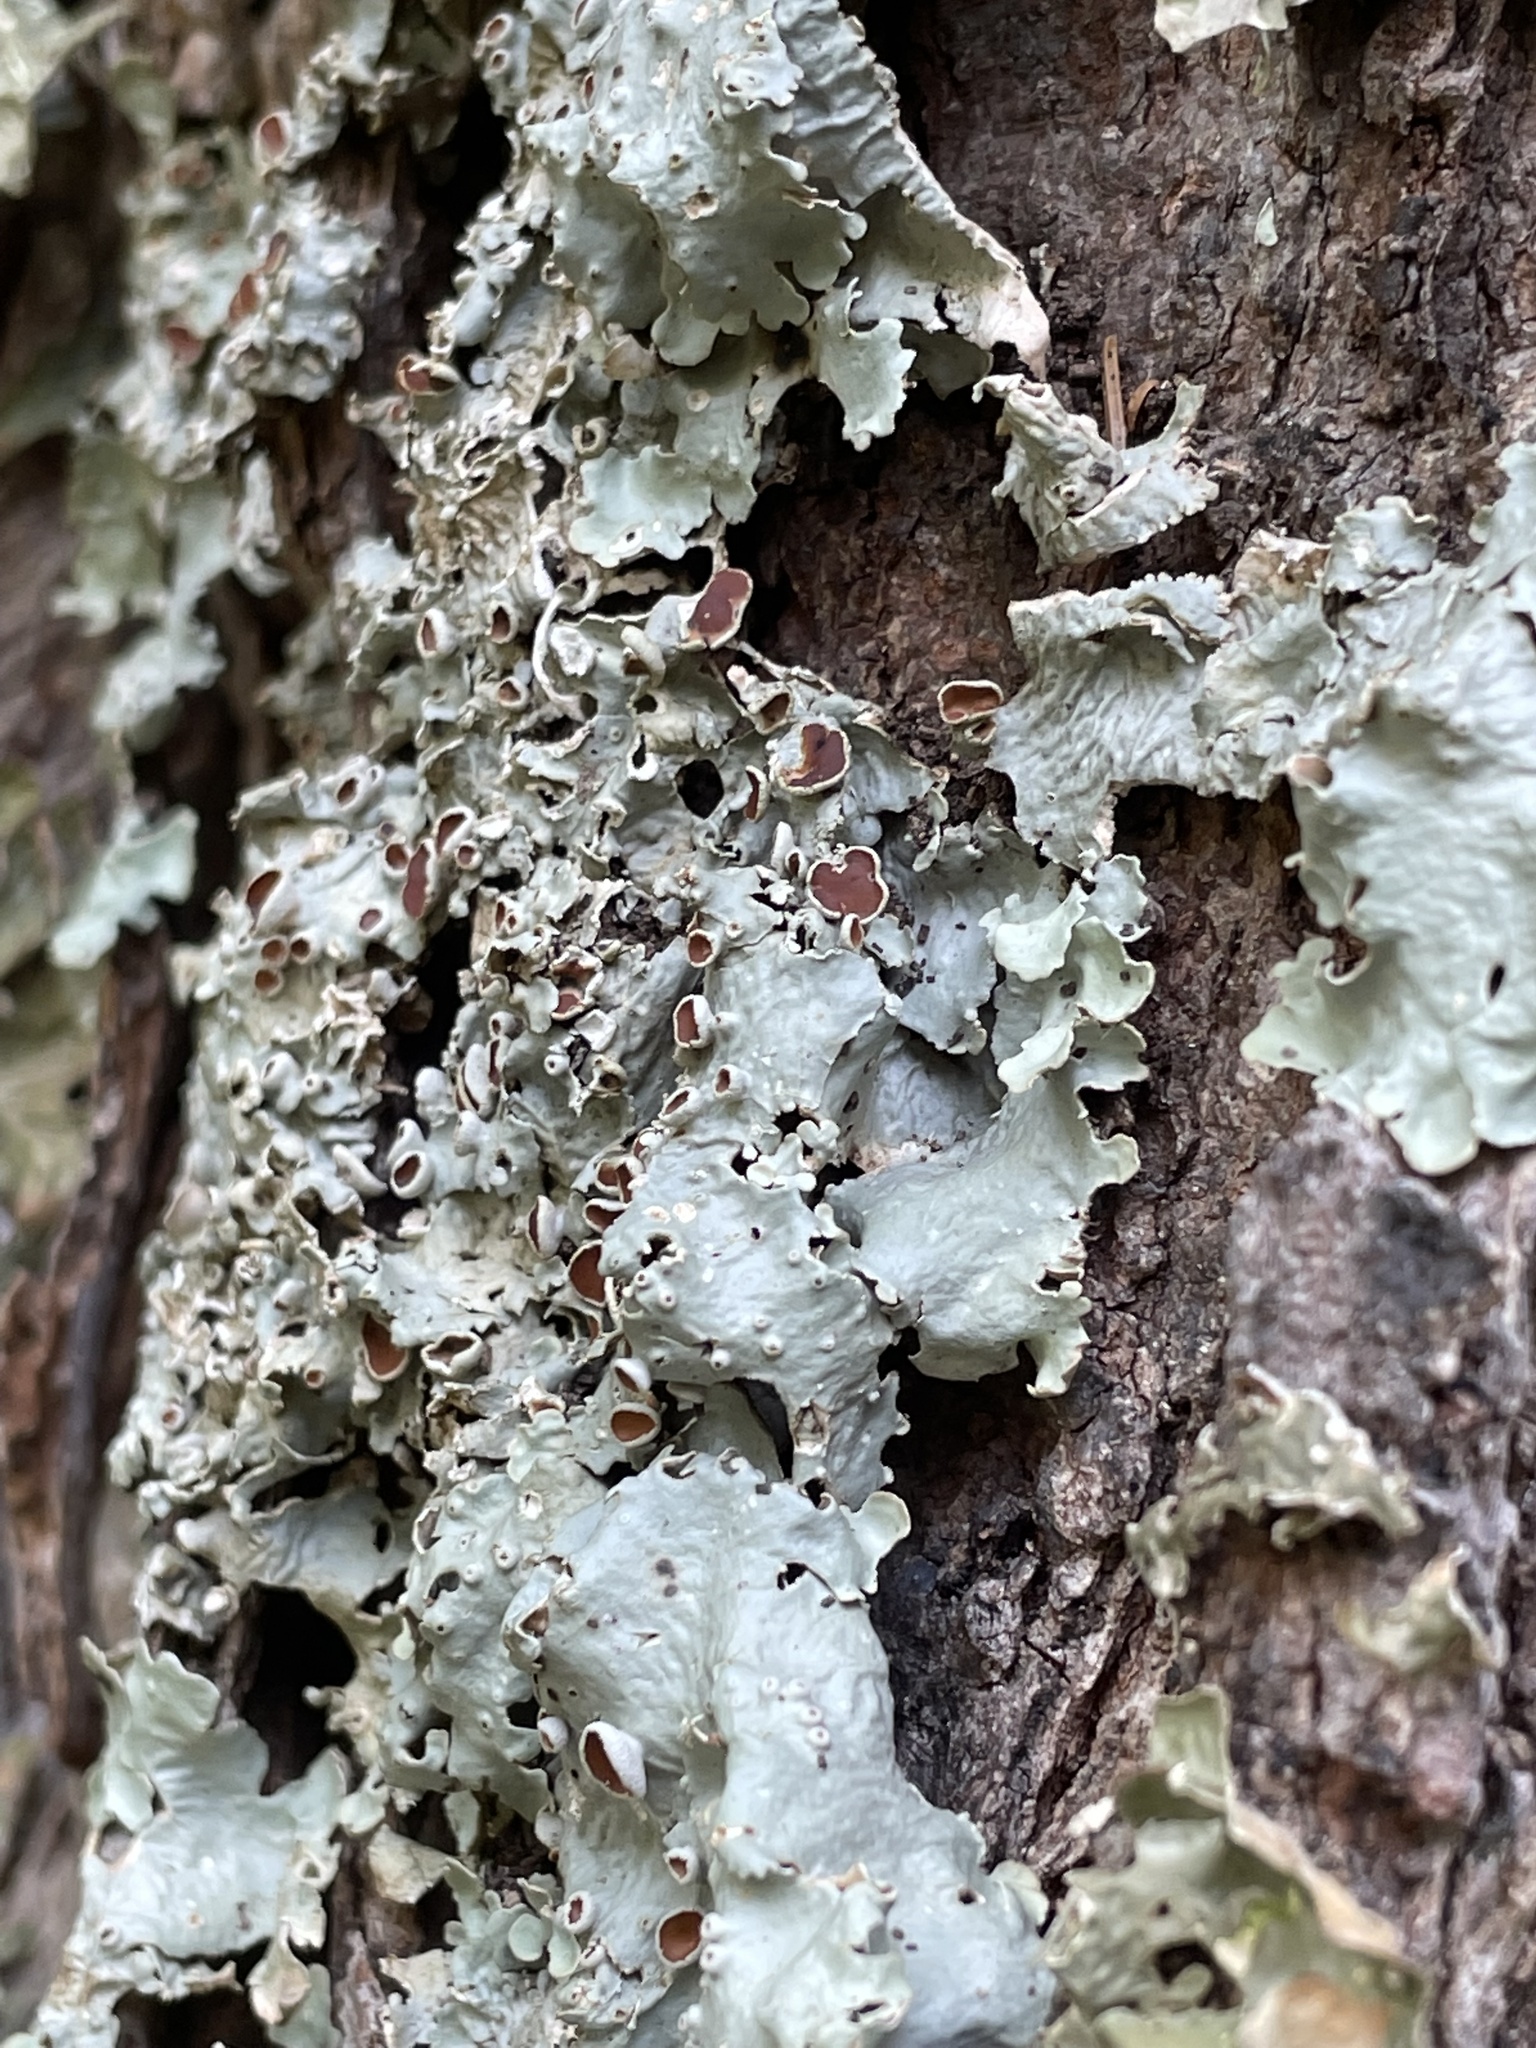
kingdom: Fungi
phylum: Ascomycota
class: Lecanoromycetes
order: Peltigerales
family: Lobariaceae
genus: Ricasolia
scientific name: Ricasolia quercizans
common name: Smooth lungwort
